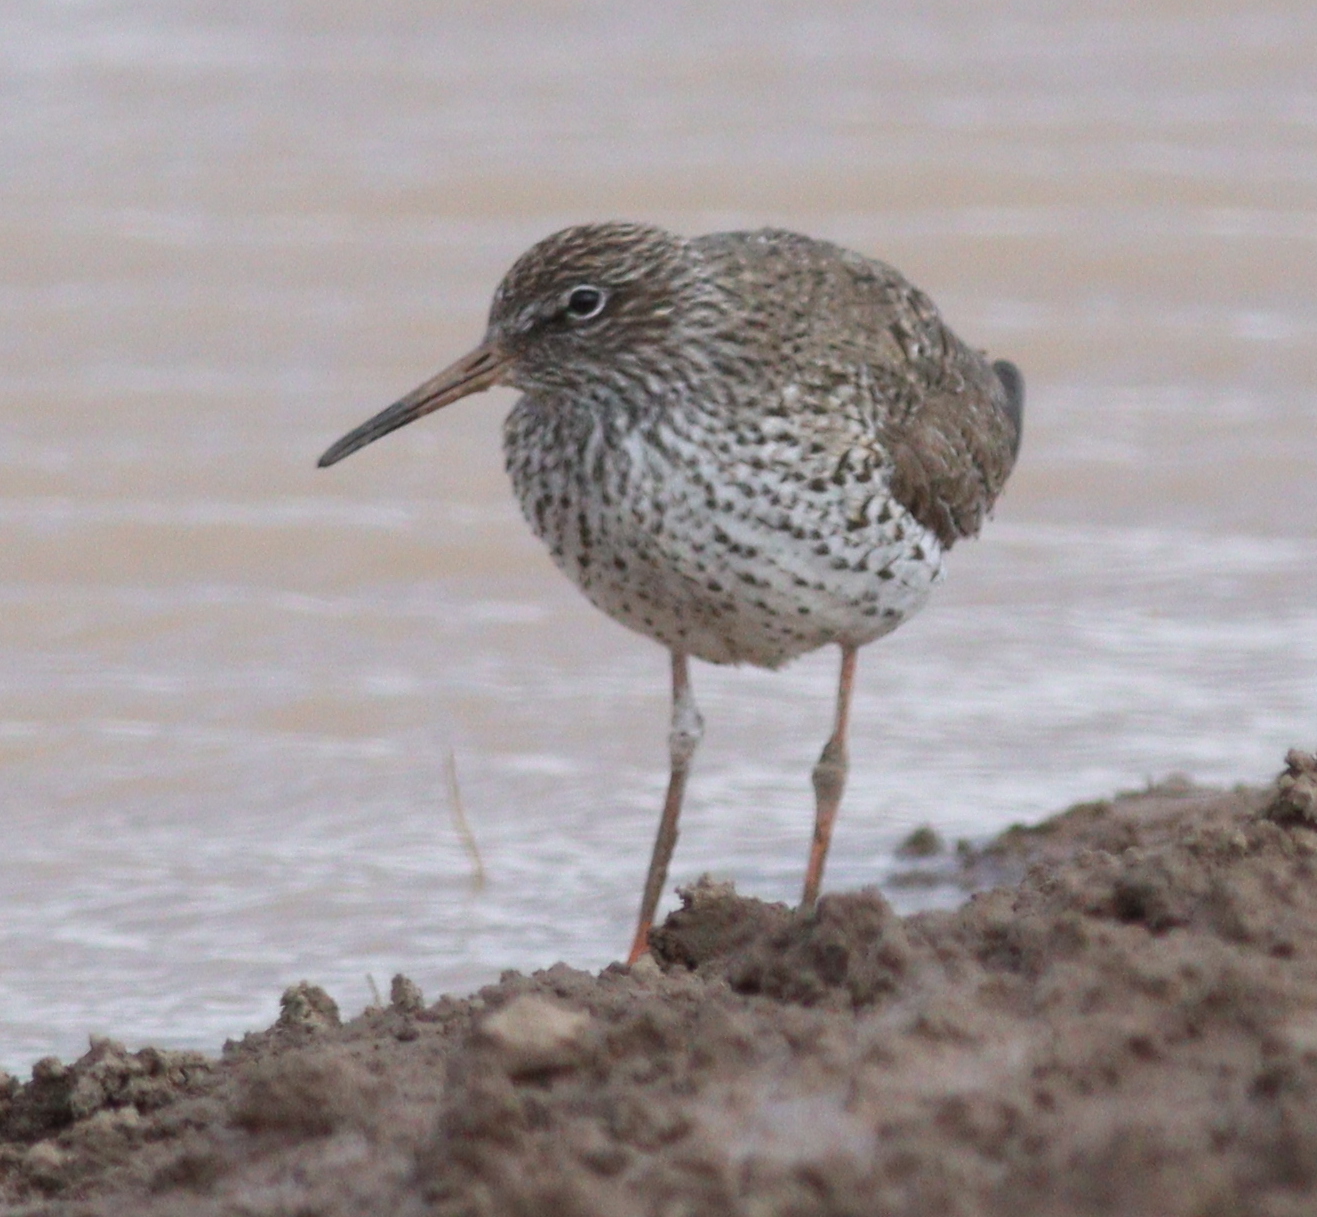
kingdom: Animalia
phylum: Chordata
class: Aves
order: Charadriiformes
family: Scolopacidae
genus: Tringa
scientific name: Tringa totanus
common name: Common redshank
